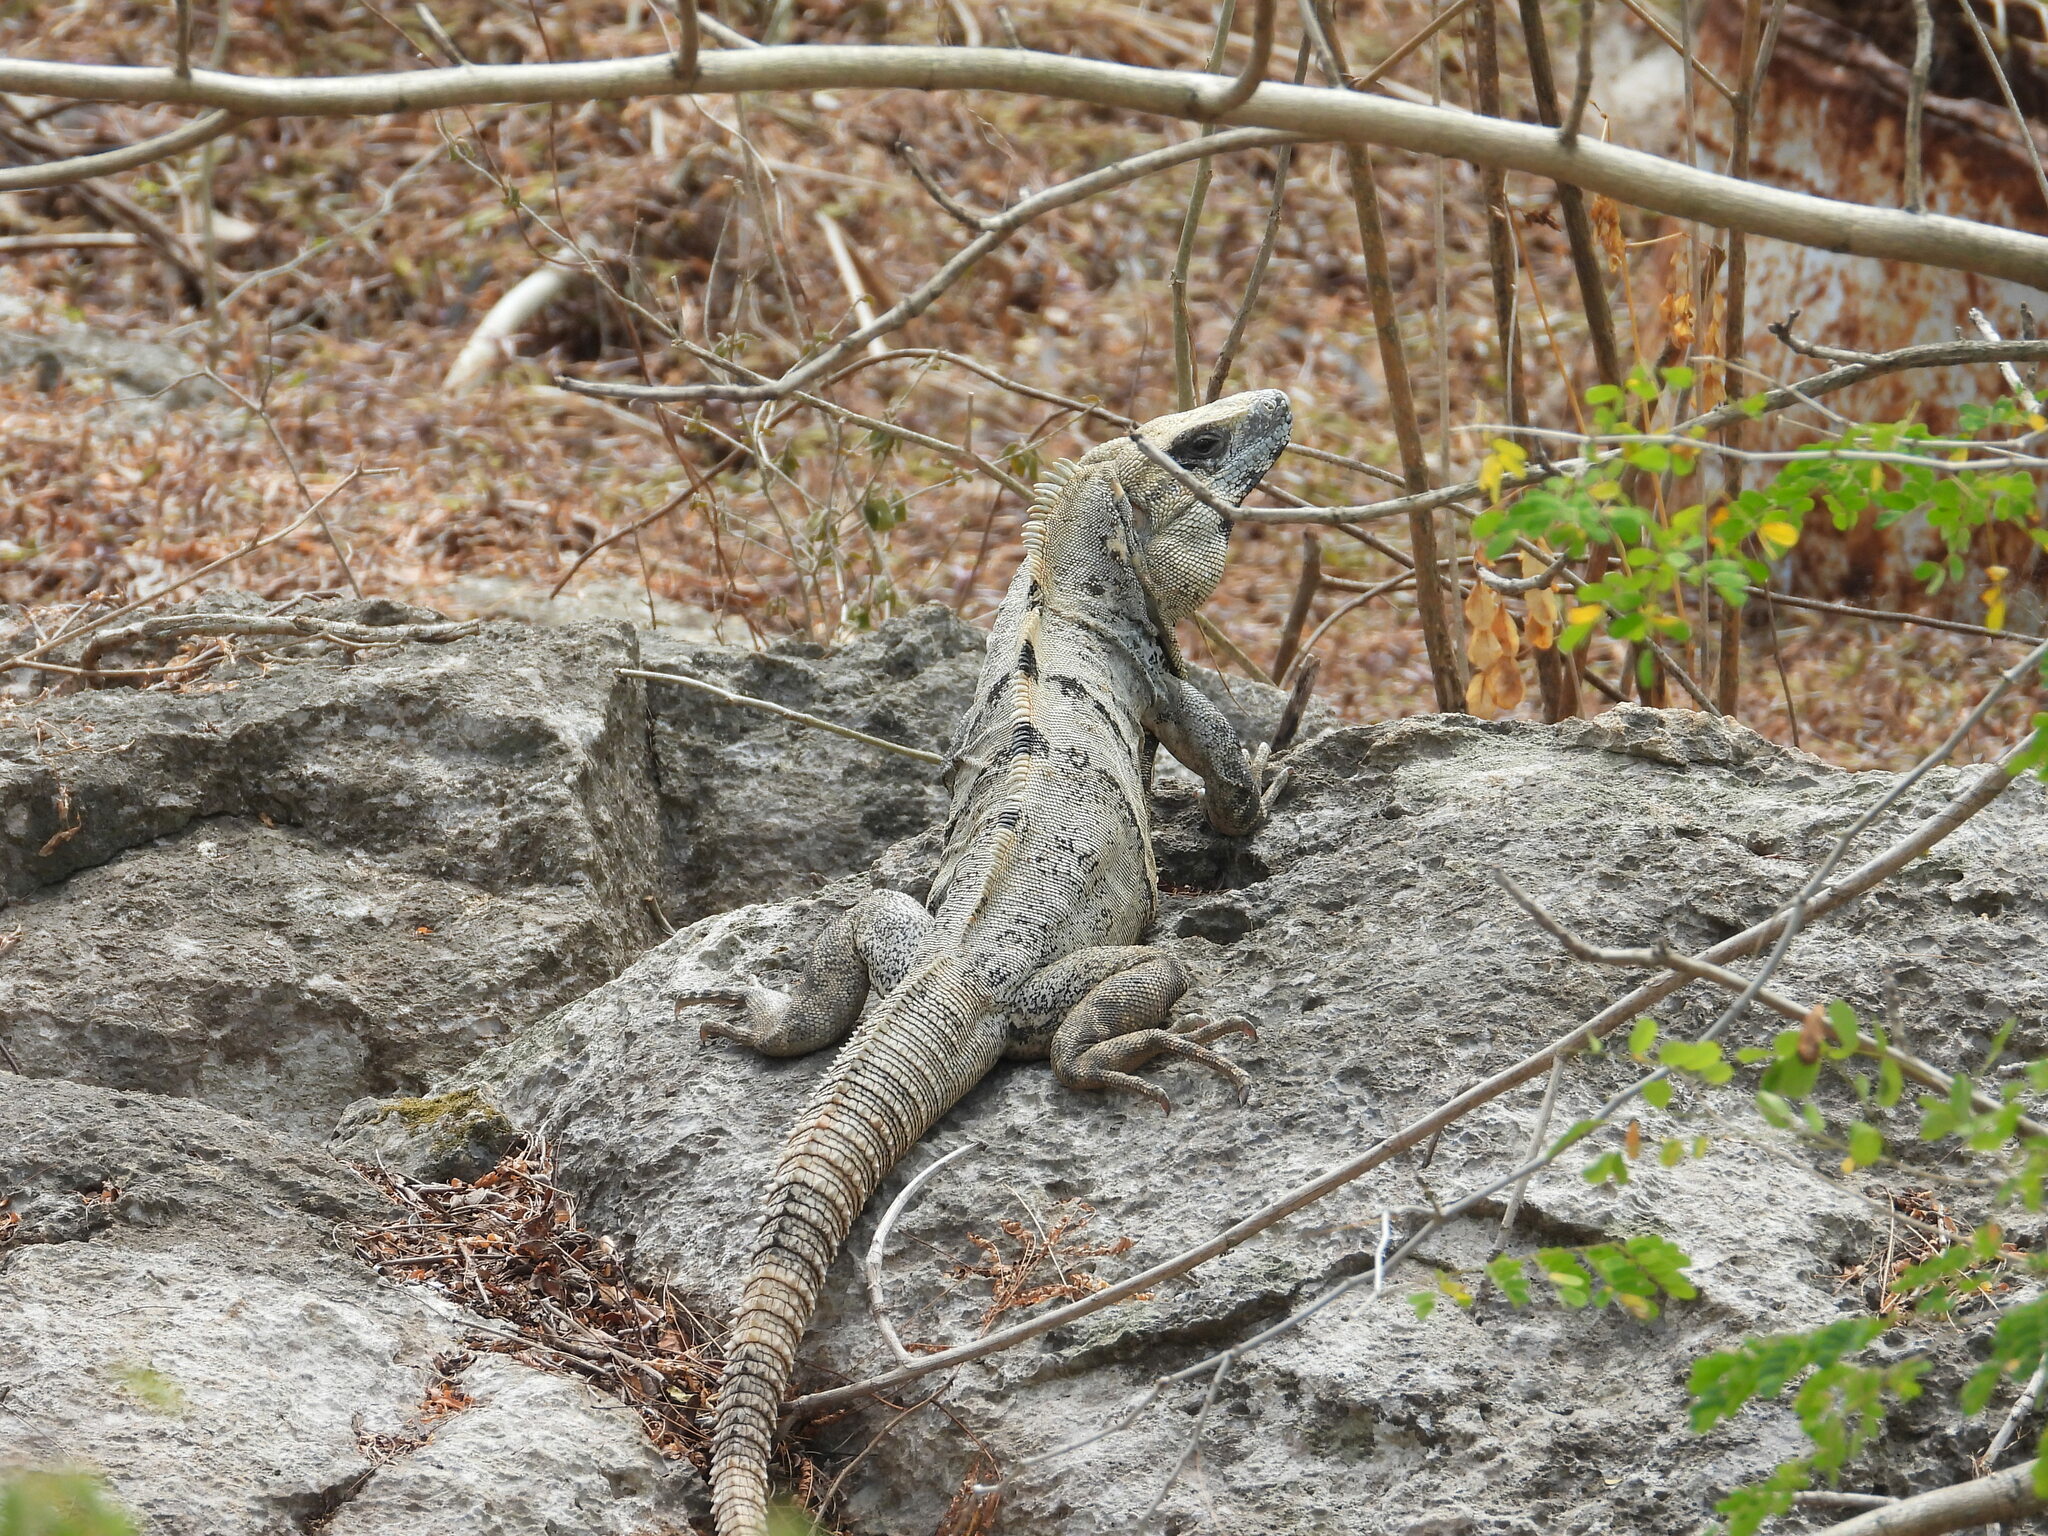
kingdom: Animalia
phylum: Chordata
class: Squamata
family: Iguanidae
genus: Ctenosaura
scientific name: Ctenosaura similis
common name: Black spiny-tailed iguana
